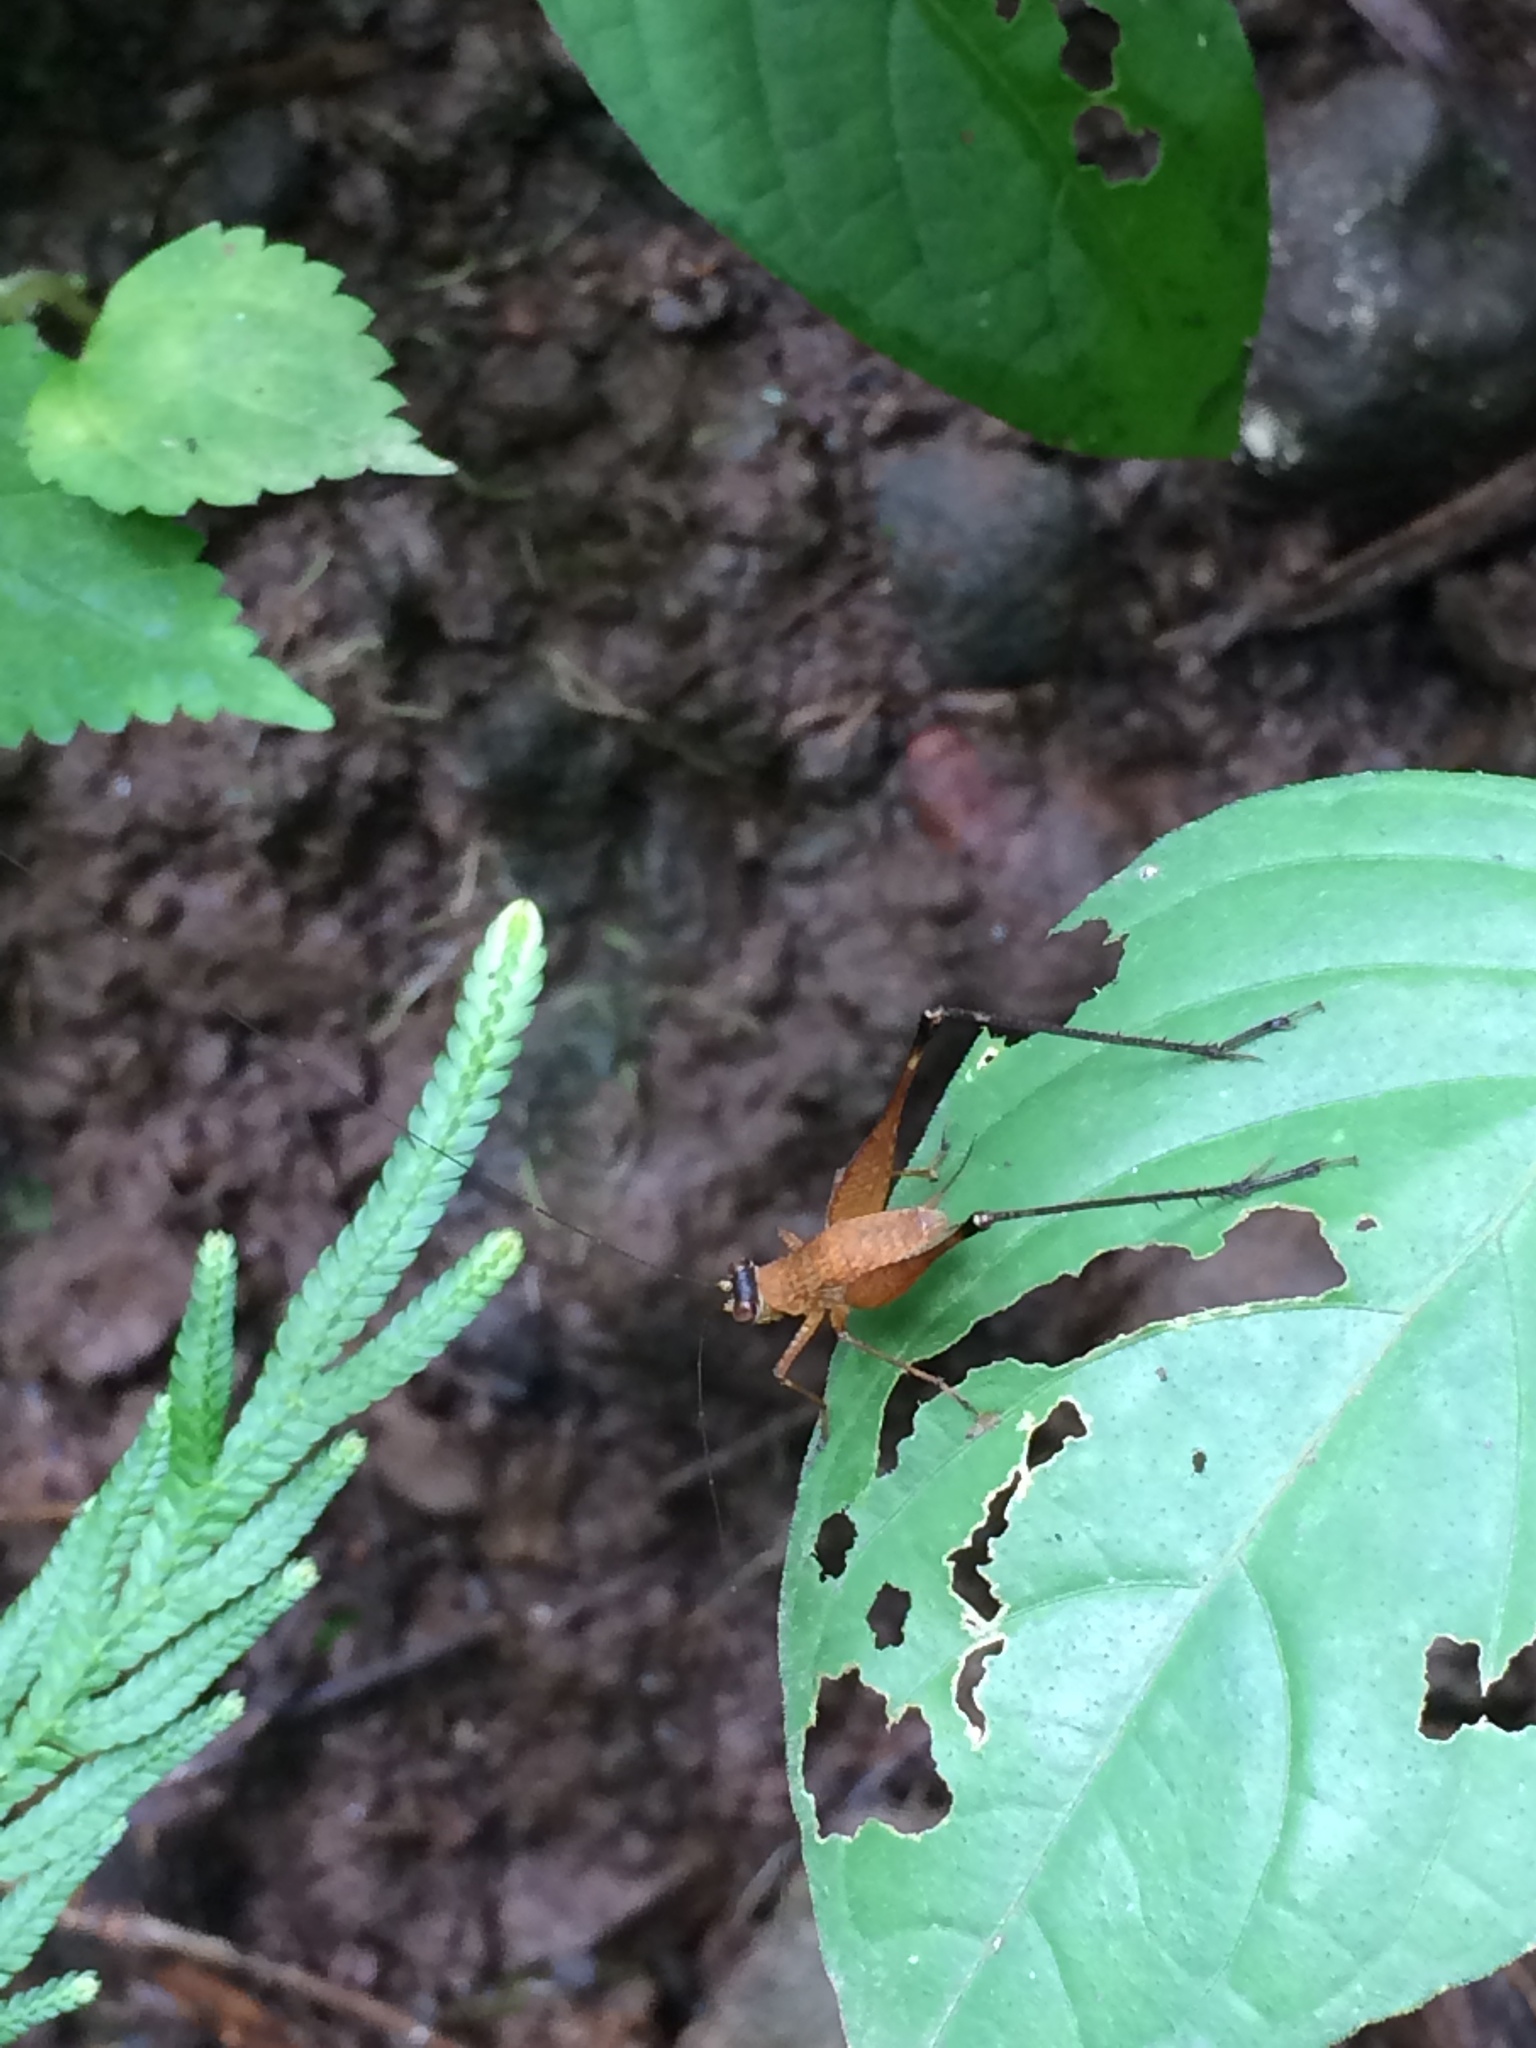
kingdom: Animalia
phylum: Arthropoda
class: Insecta
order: Orthoptera
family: Gryllidae
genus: Paranisitra
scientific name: Paranisitra flavofacia
